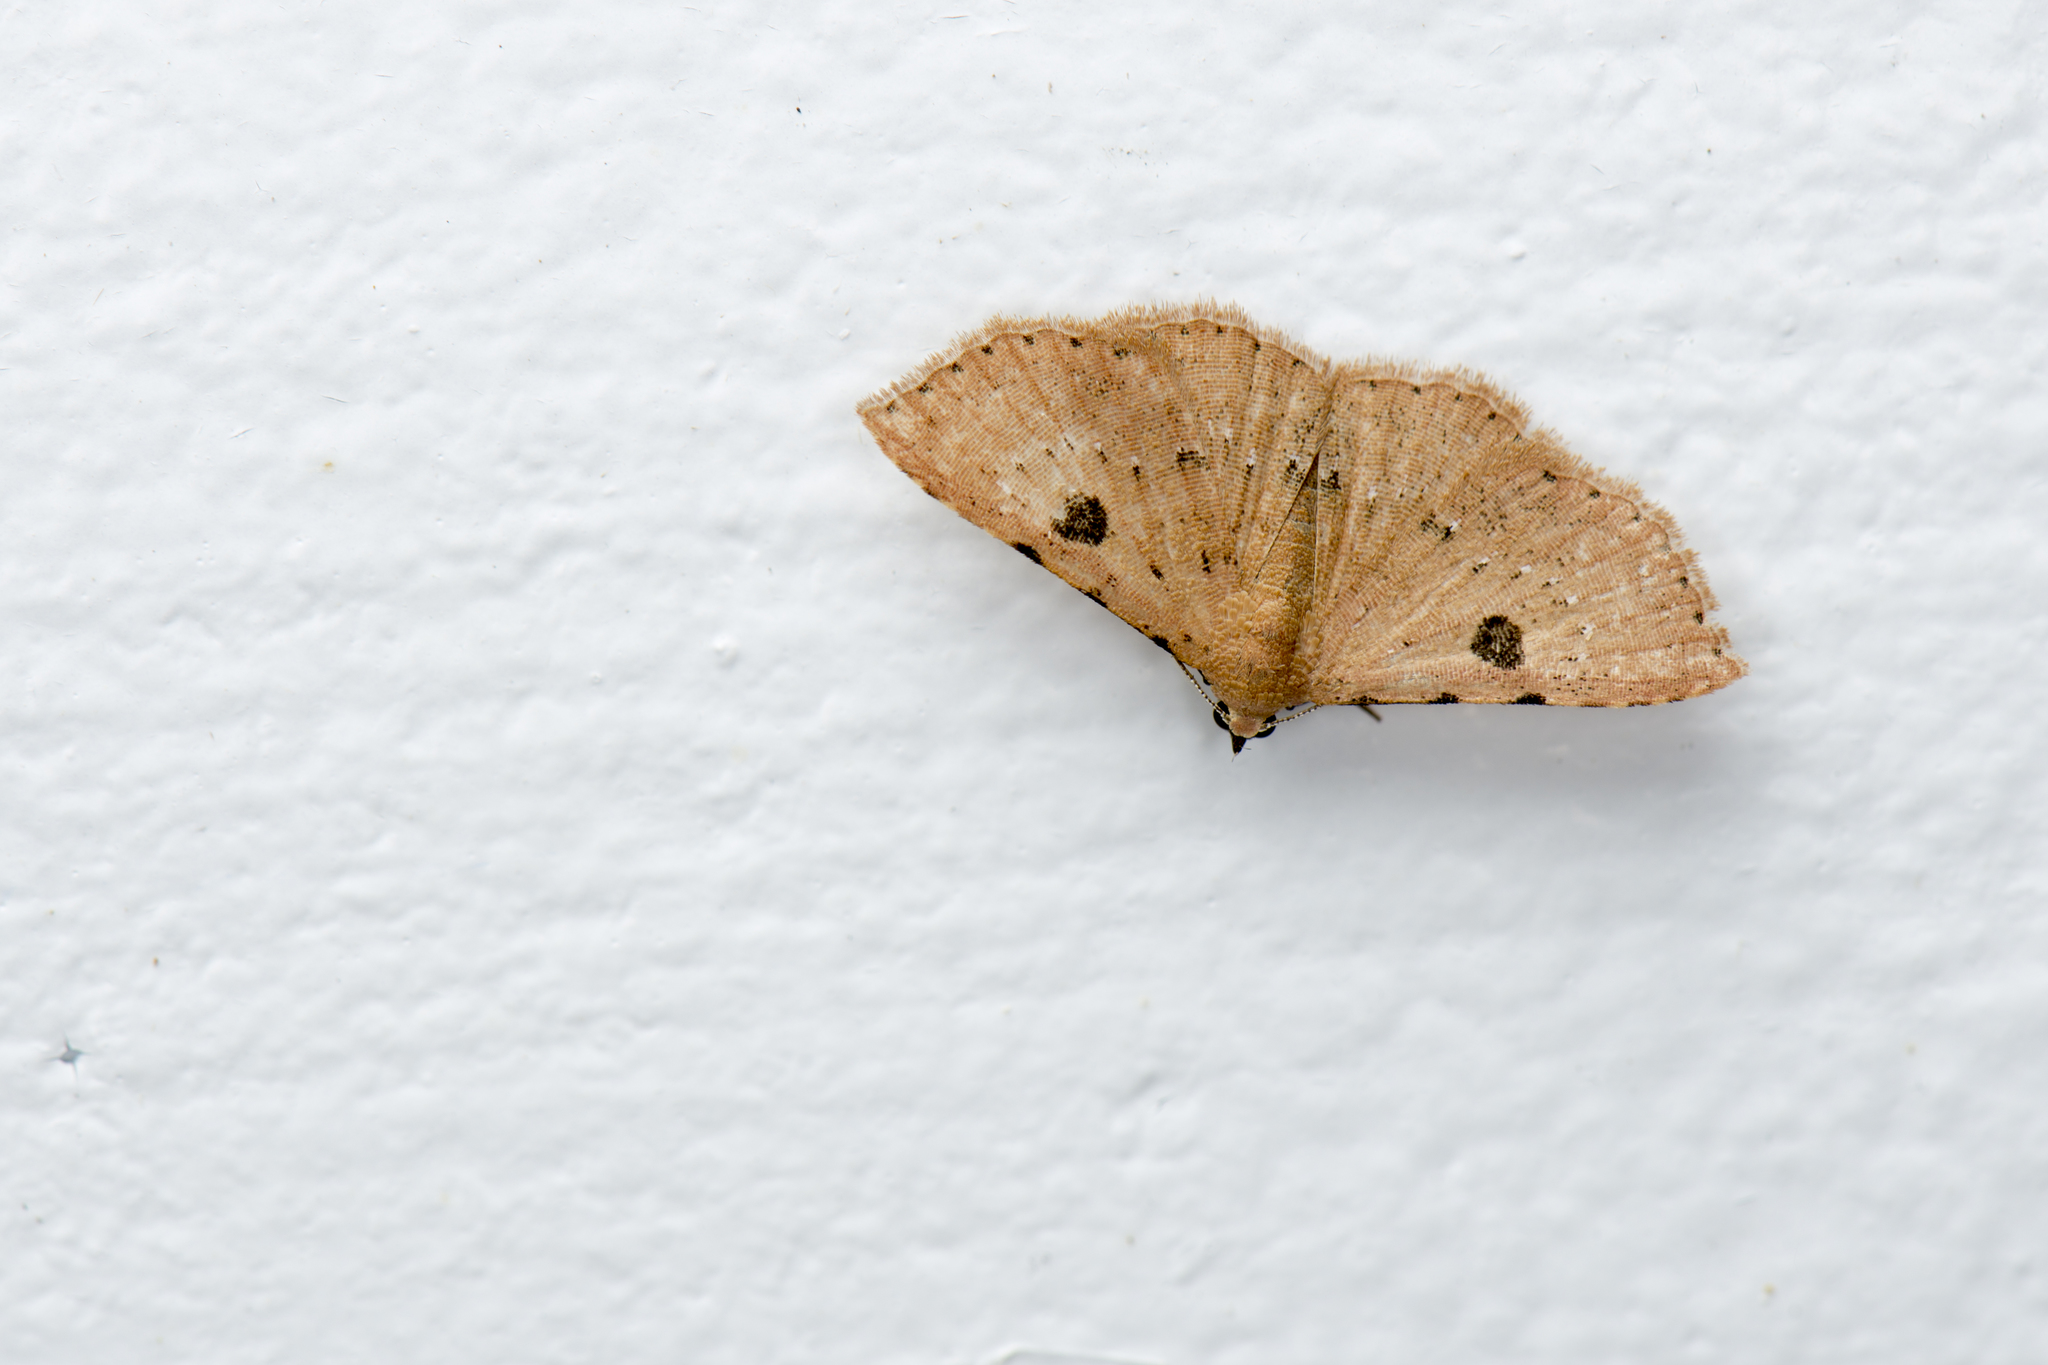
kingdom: Animalia
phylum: Arthropoda
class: Insecta
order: Lepidoptera
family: Erebidae
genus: Corgatha
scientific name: Corgatha trichogyia
